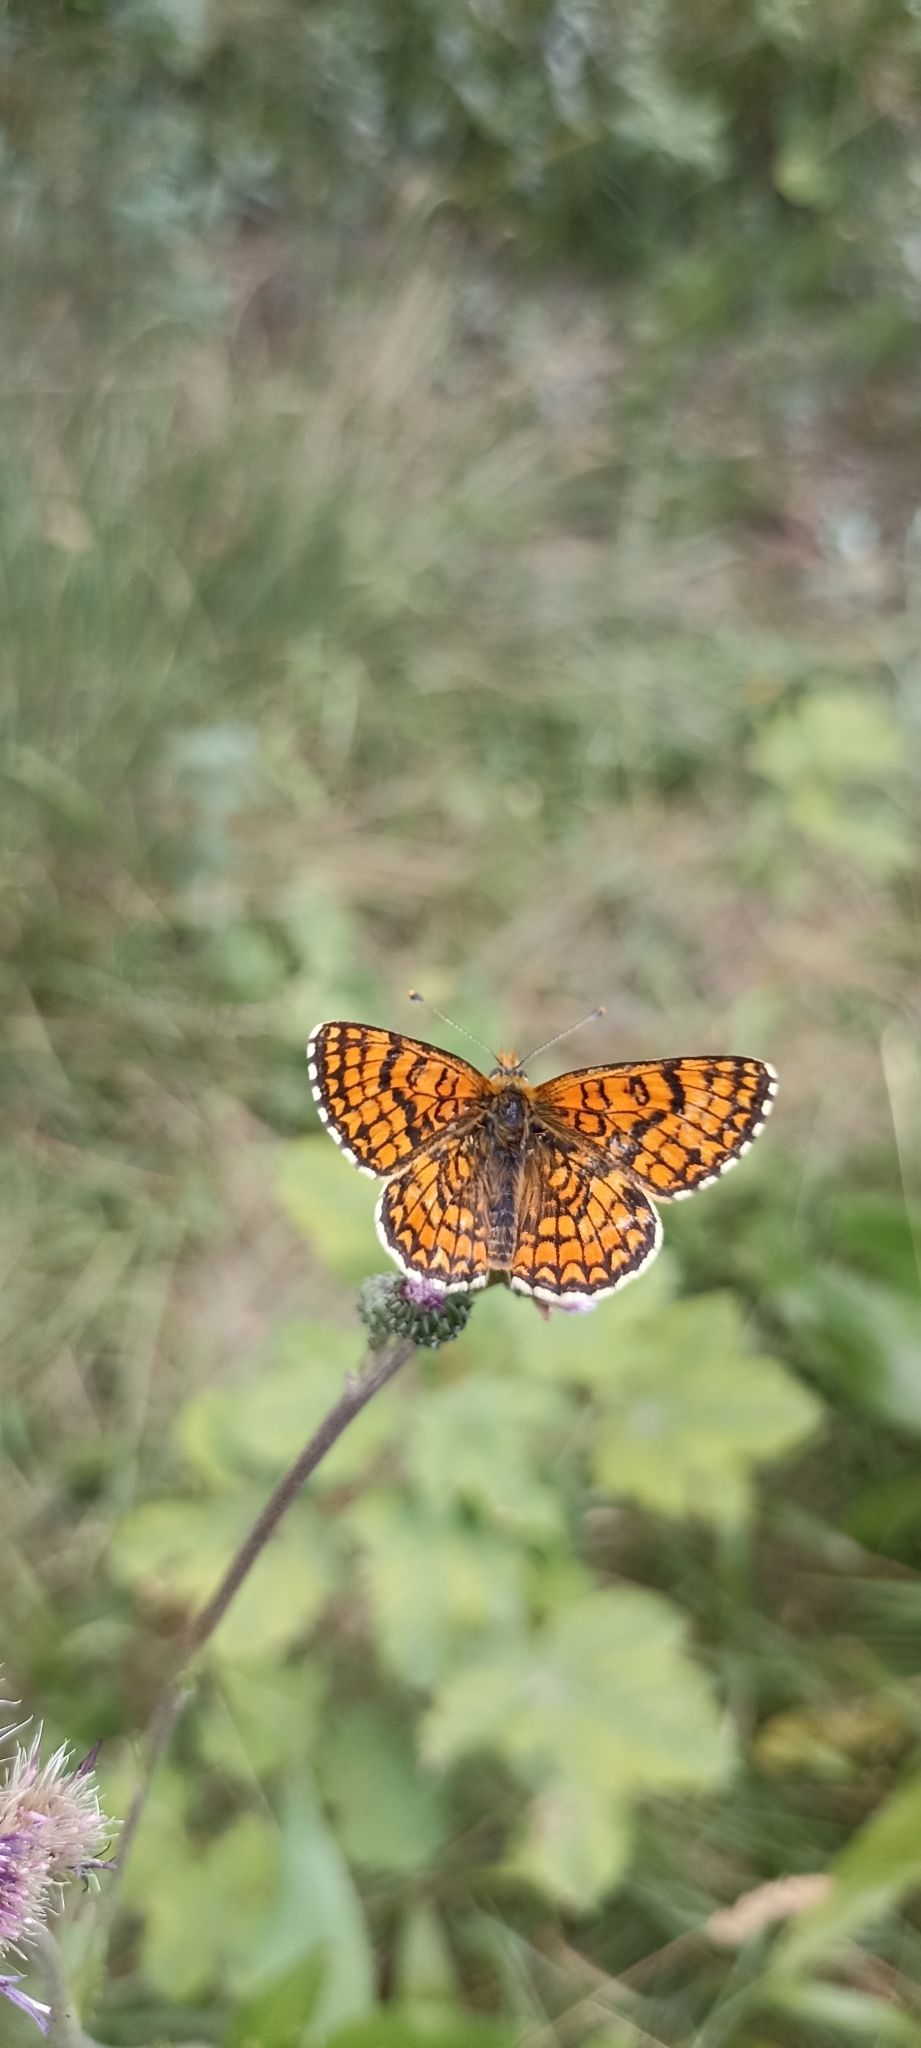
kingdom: Animalia
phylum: Arthropoda
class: Insecta
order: Lepidoptera
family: Nymphalidae
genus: Melitaea
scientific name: Melitaea deione
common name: Provençal fritillary
